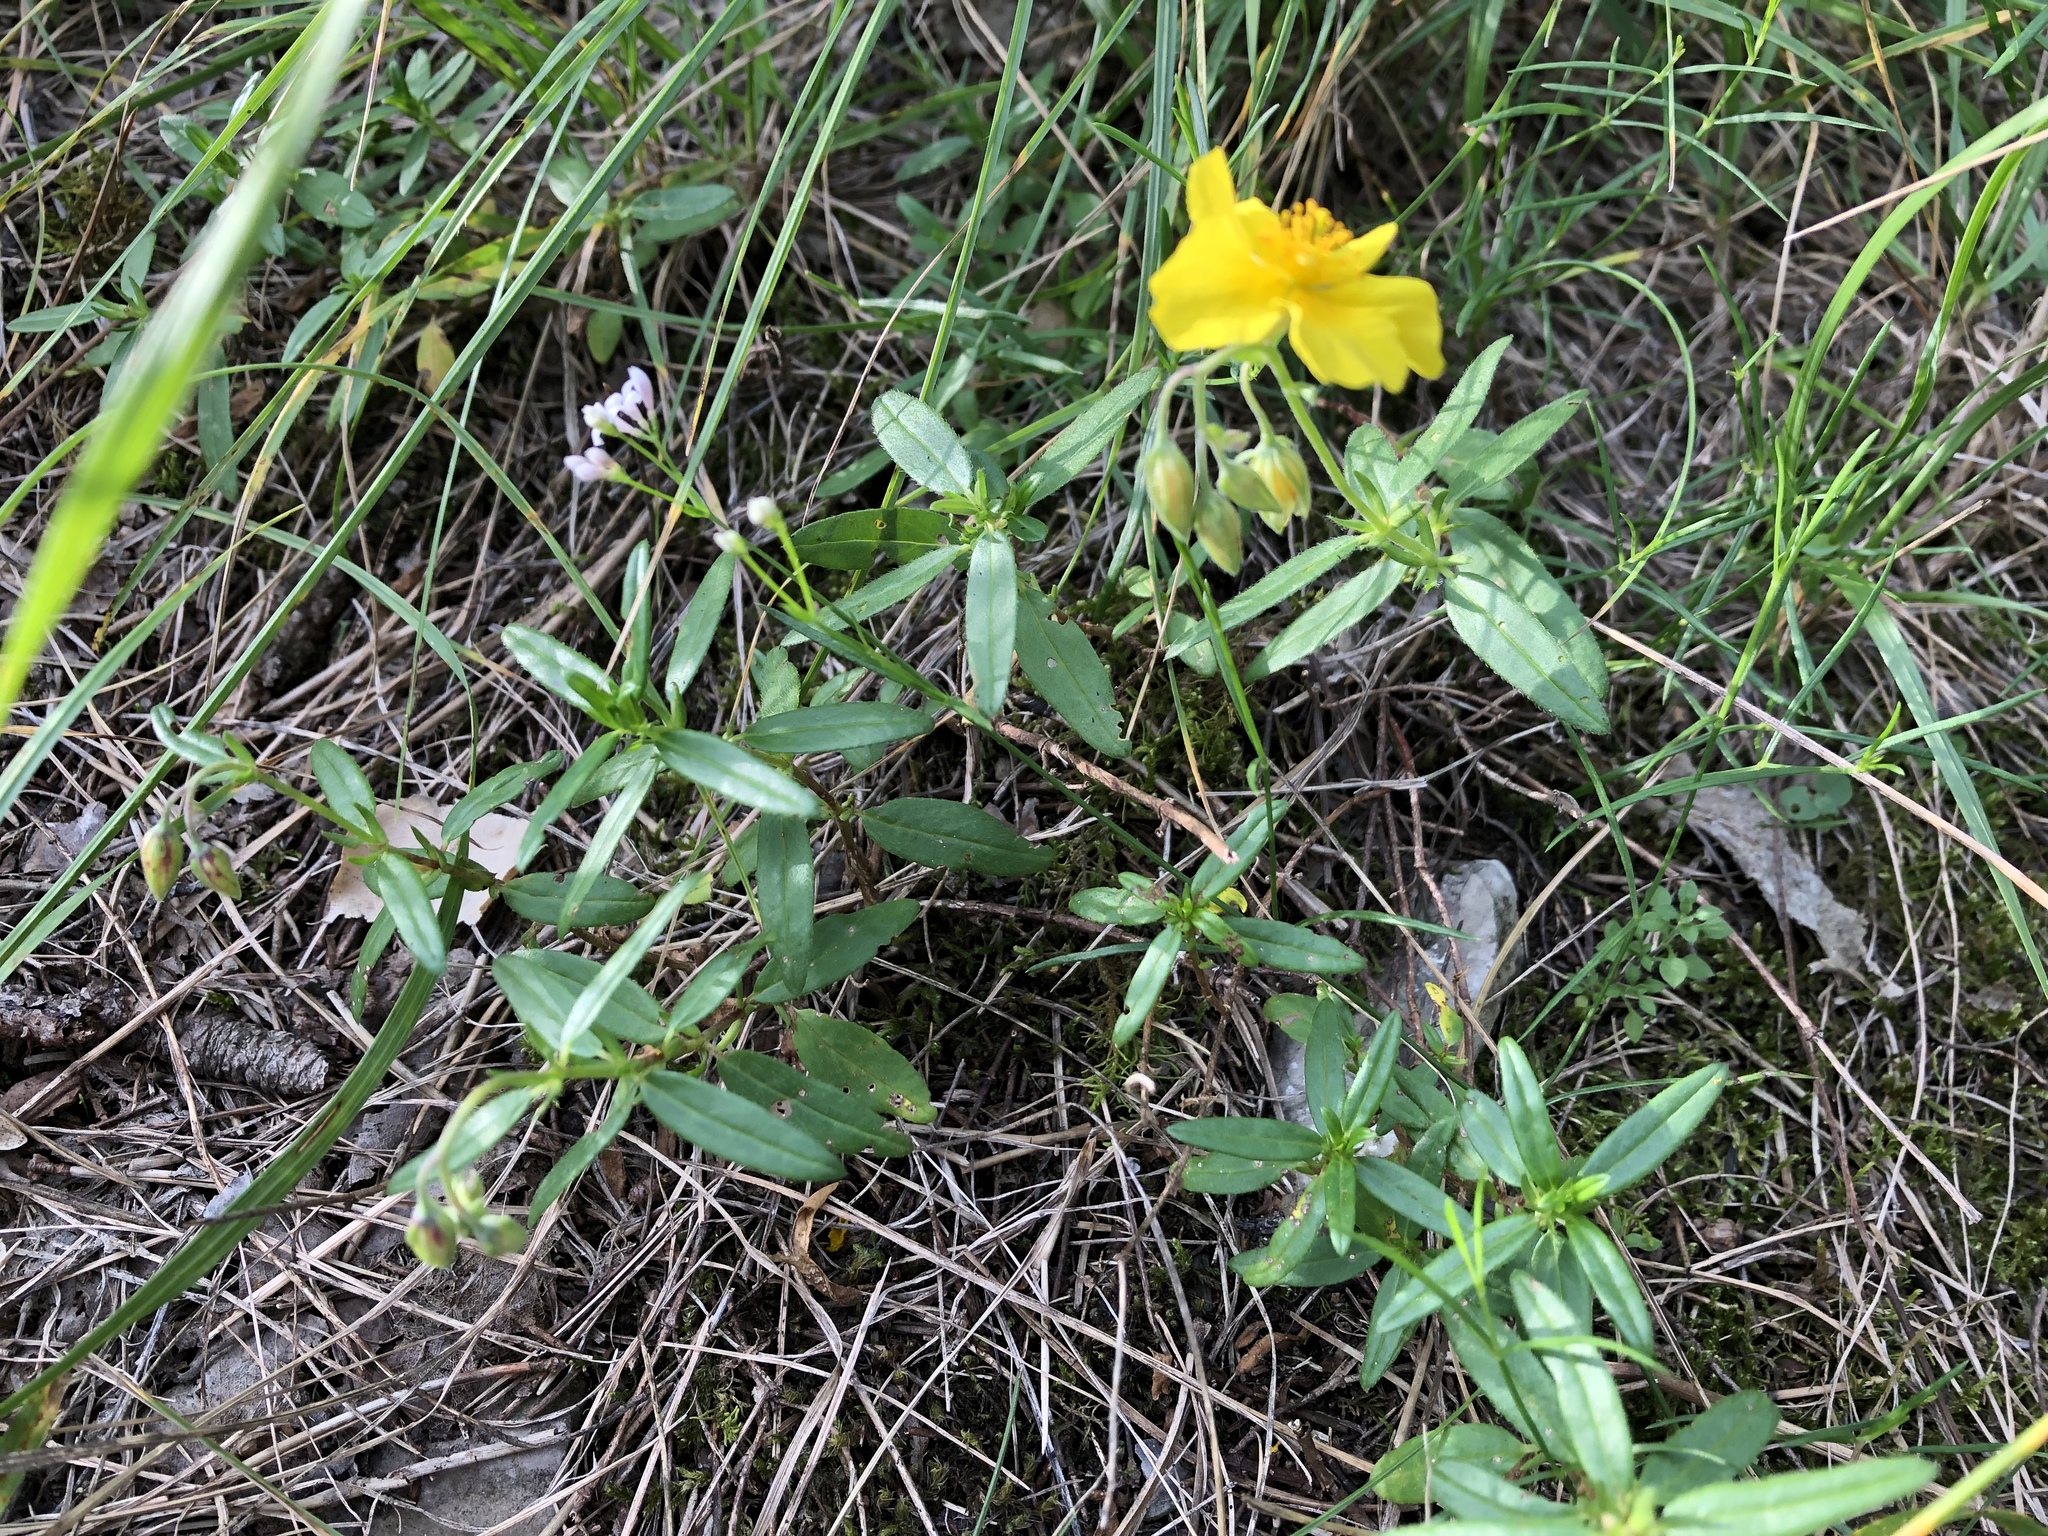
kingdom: Plantae
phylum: Tracheophyta
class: Magnoliopsida
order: Malvales
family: Cistaceae
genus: Helianthemum
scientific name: Helianthemum nummularium
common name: Common rock-rose
